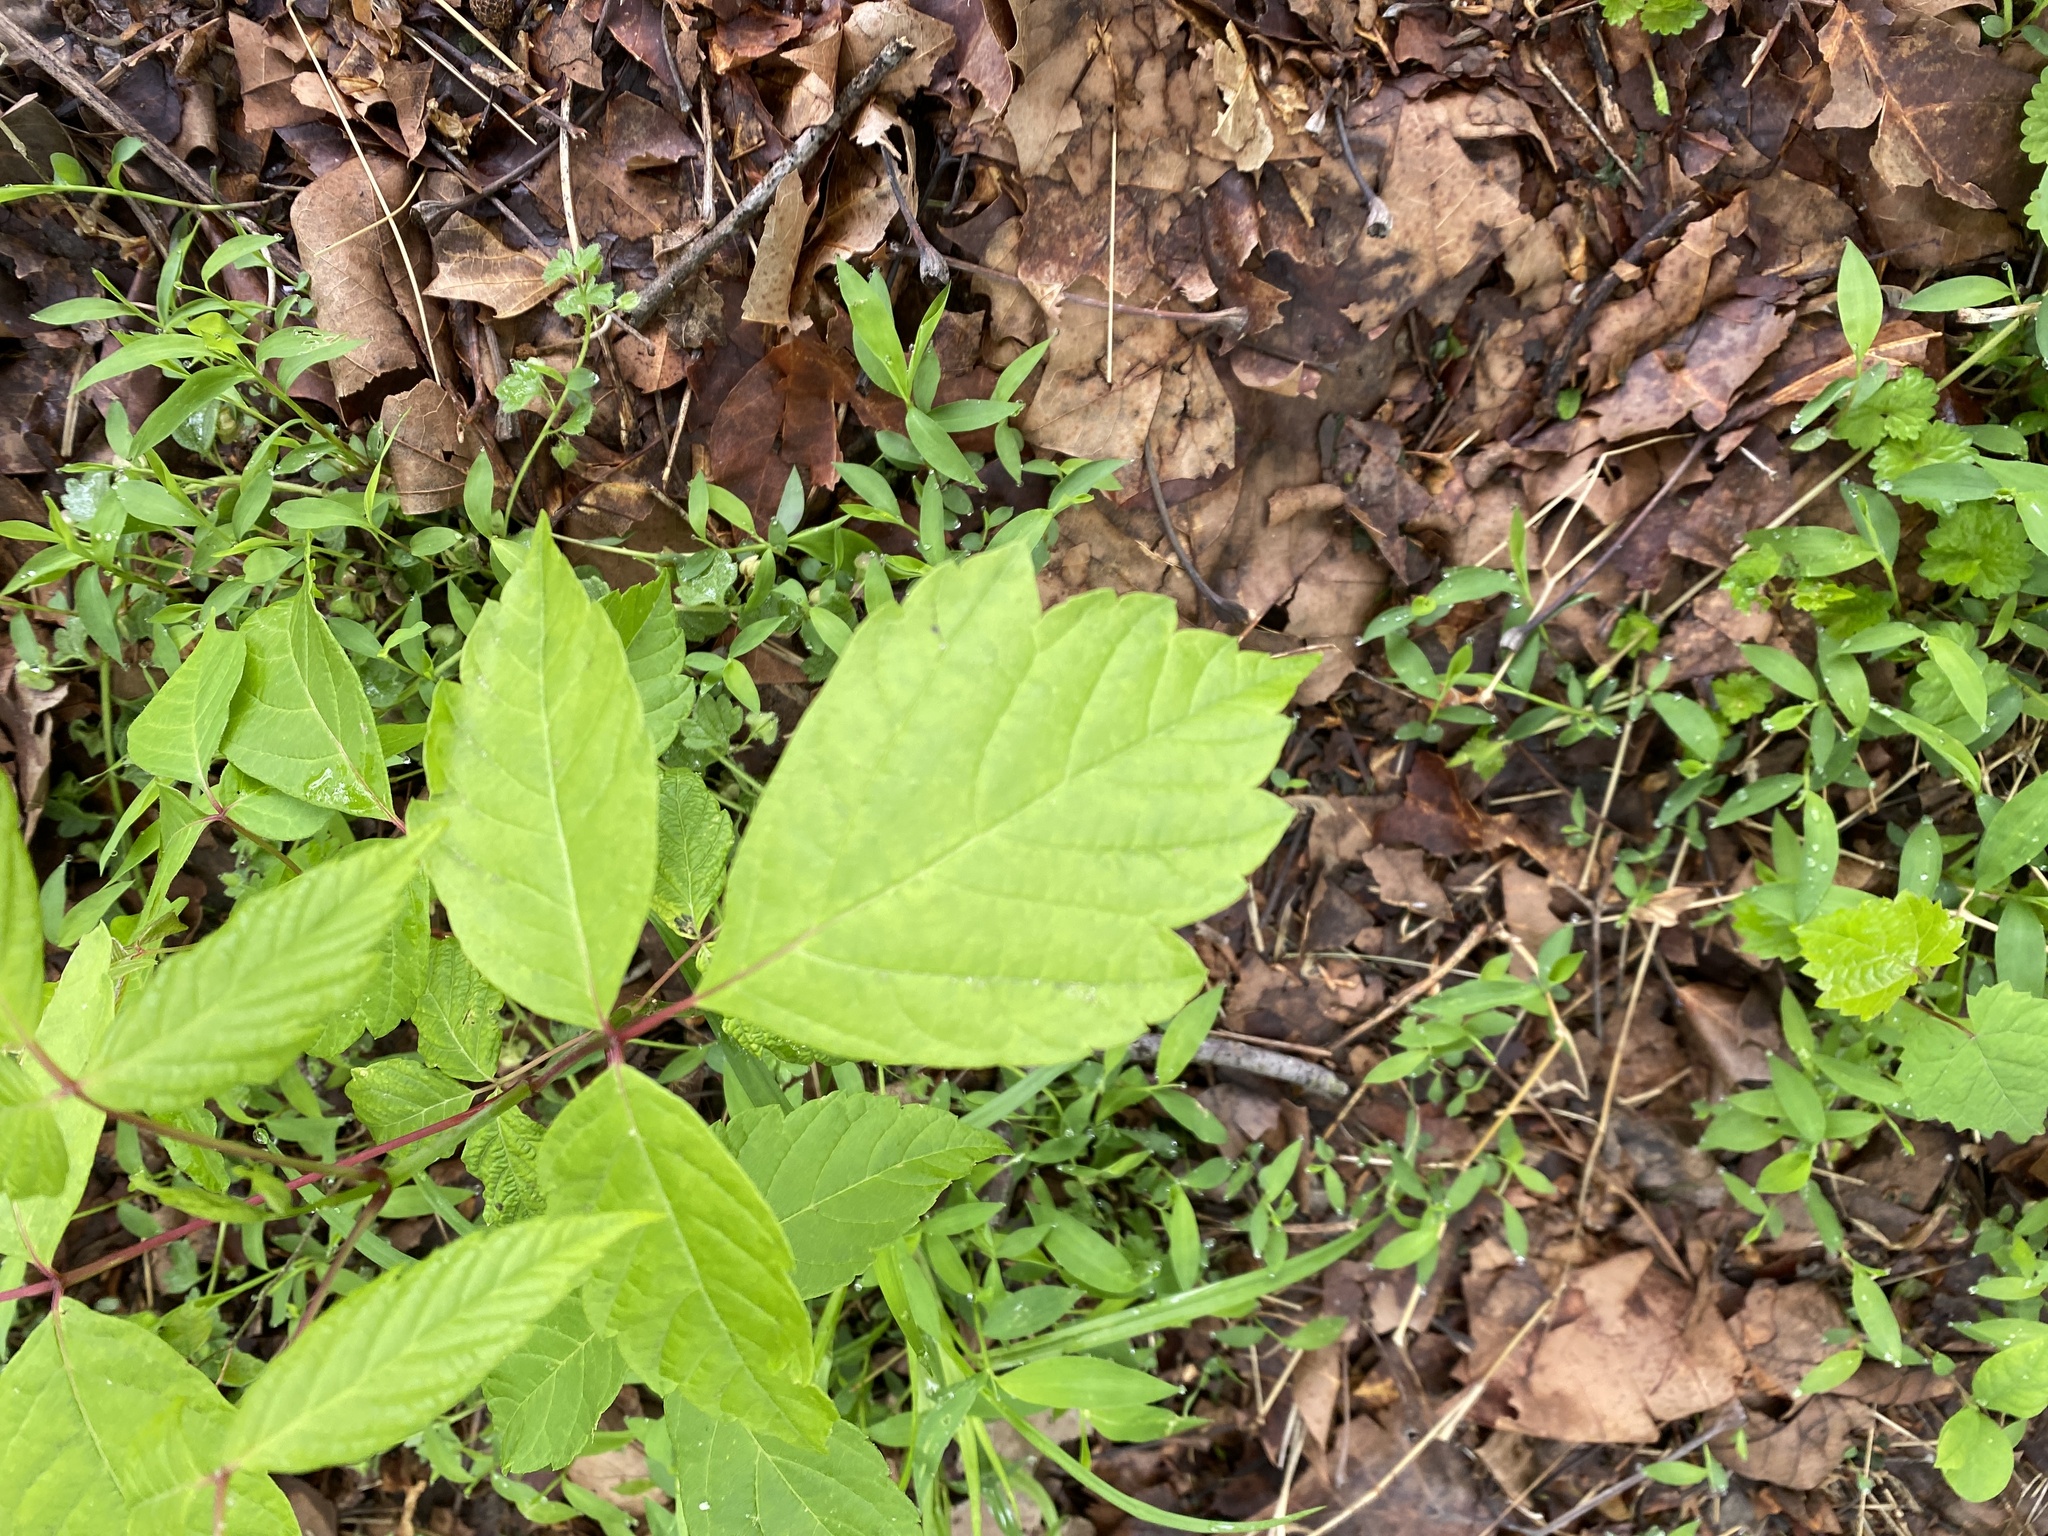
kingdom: Plantae
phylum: Tracheophyta
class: Magnoliopsida
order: Sapindales
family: Sapindaceae
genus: Acer
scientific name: Acer negundo
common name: Ashleaf maple
